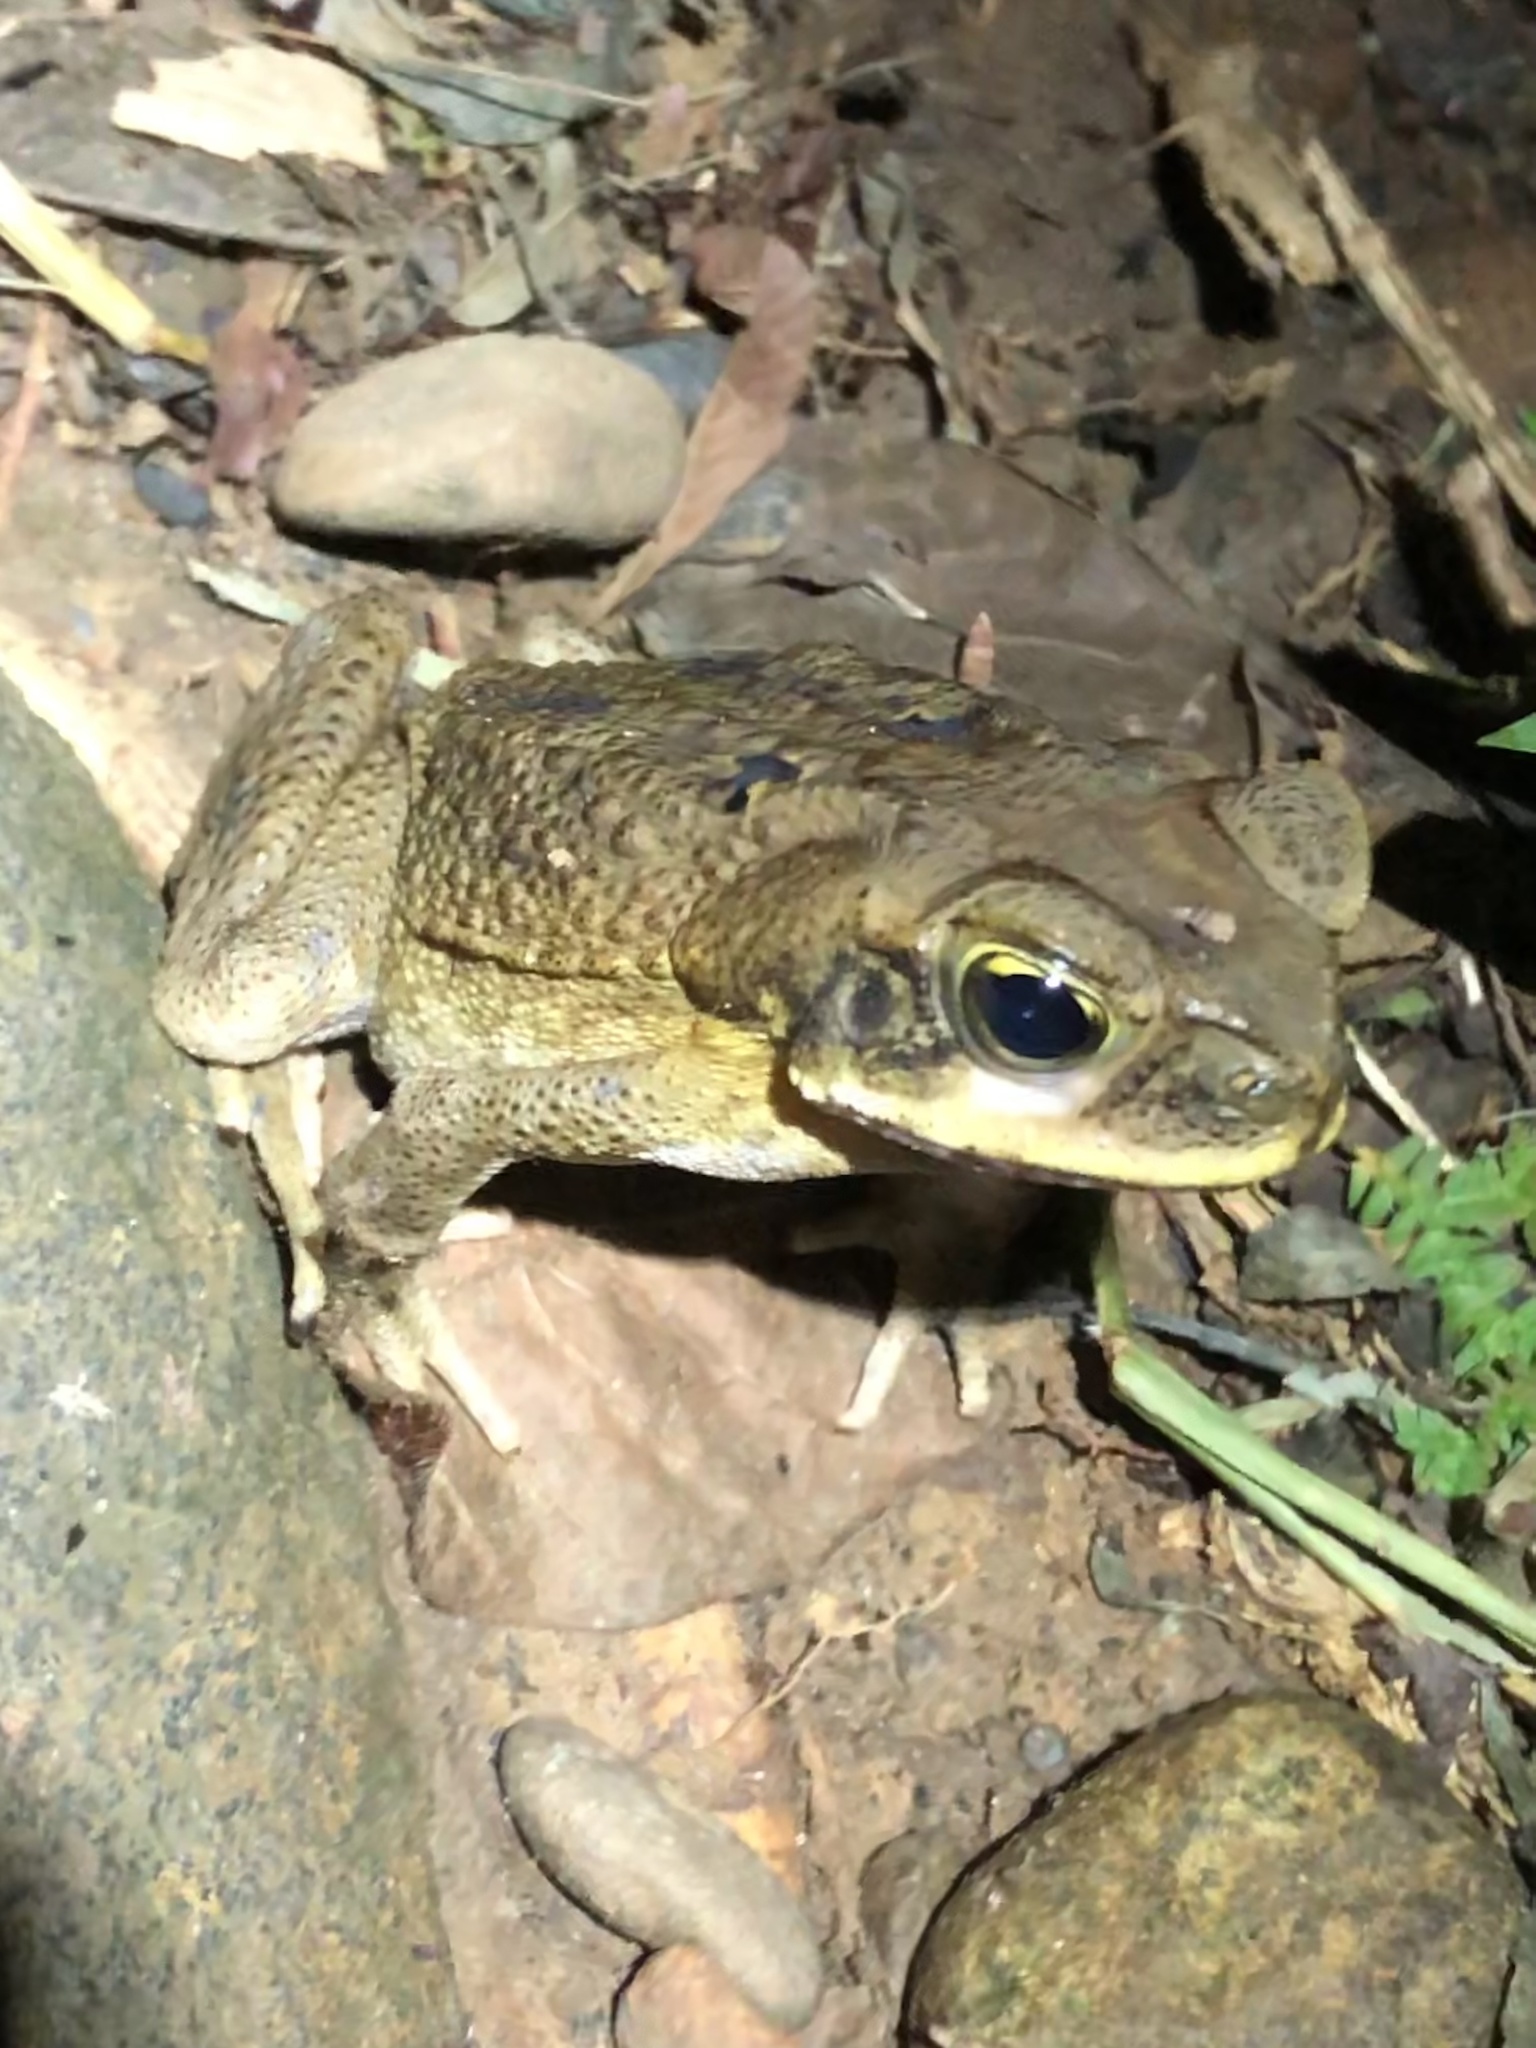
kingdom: Animalia
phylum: Chordata
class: Amphibia
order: Anura
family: Bufonidae
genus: Rhinella
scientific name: Rhinella marina
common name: Cane toad
